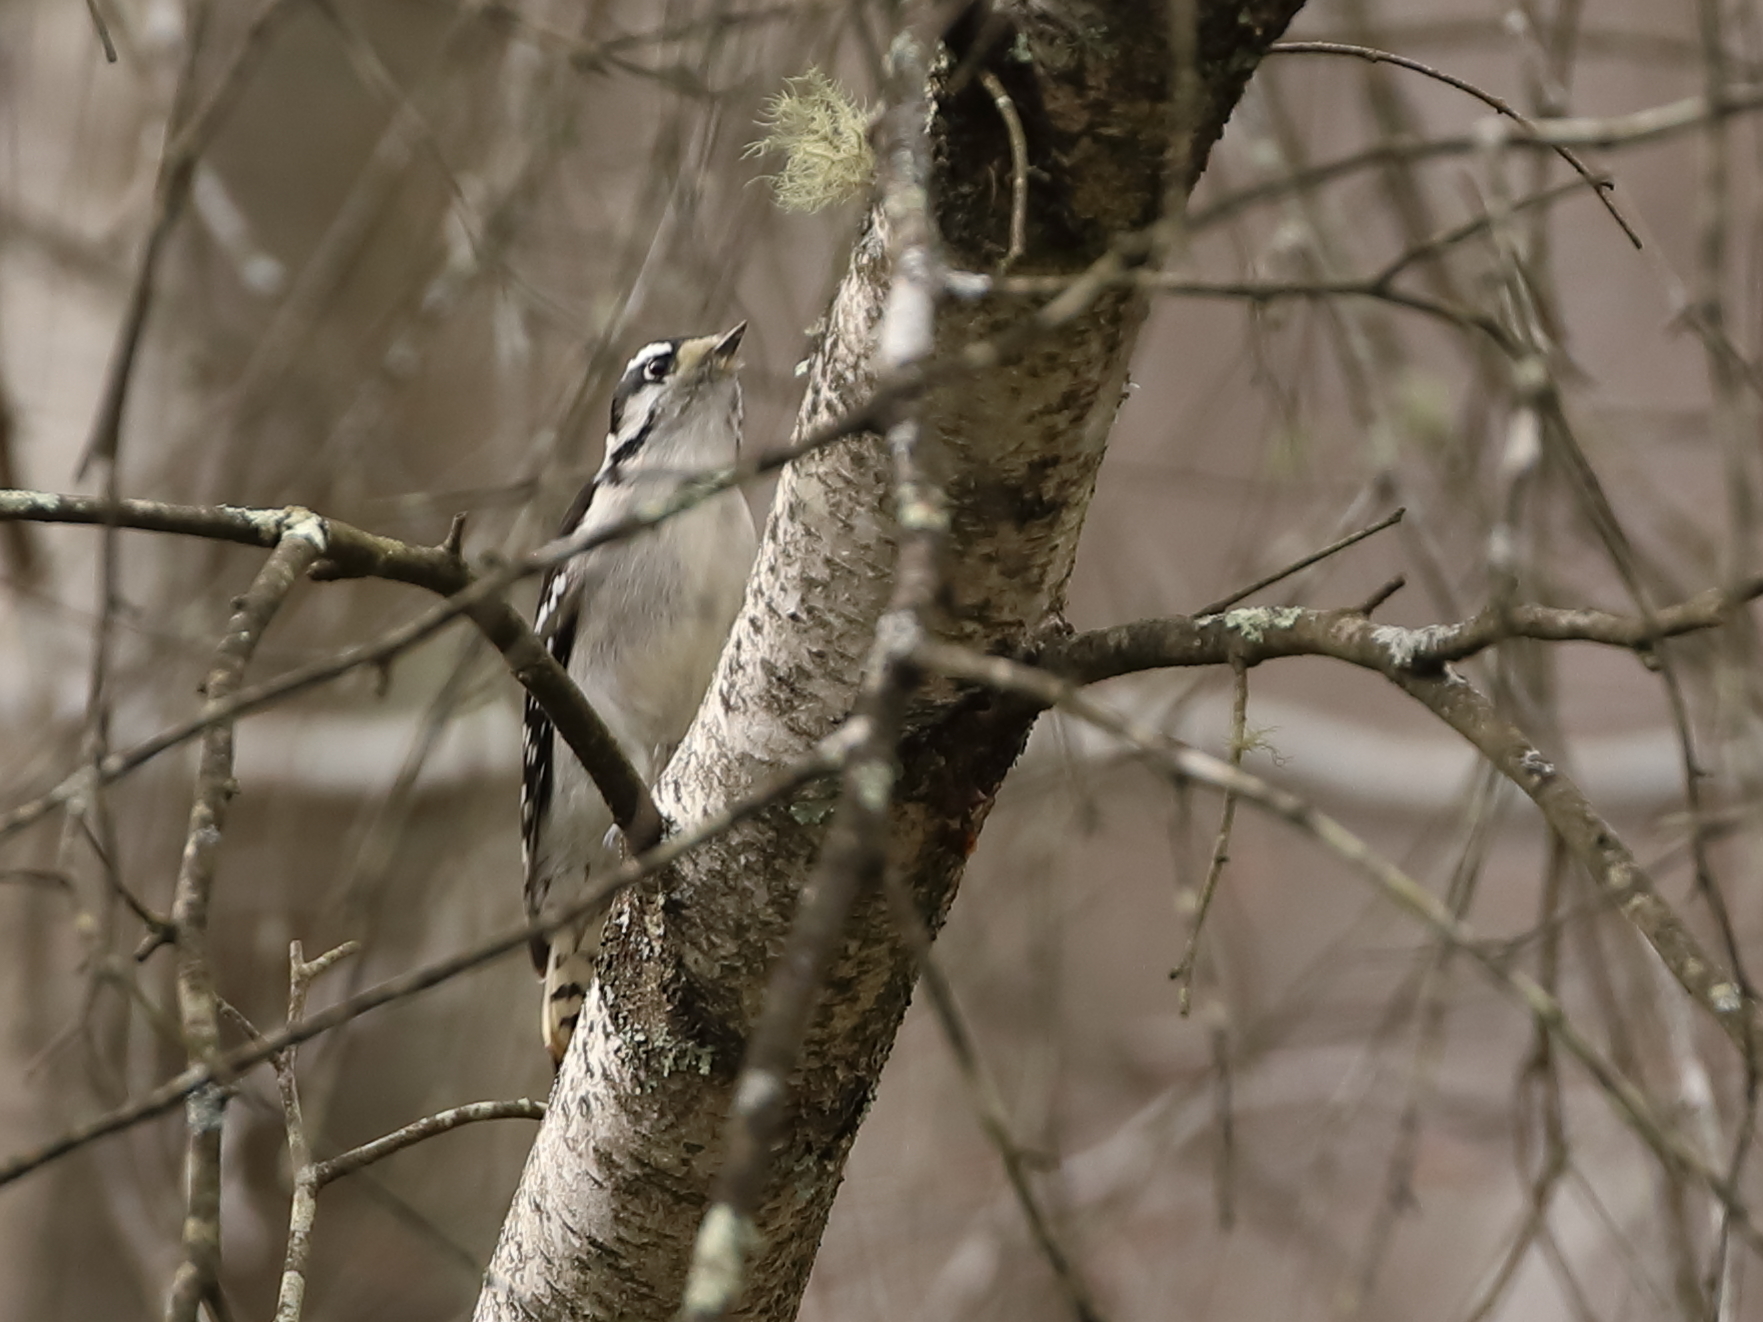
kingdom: Animalia
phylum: Chordata
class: Aves
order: Piciformes
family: Picidae
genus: Dryobates
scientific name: Dryobates pubescens
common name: Downy woodpecker
